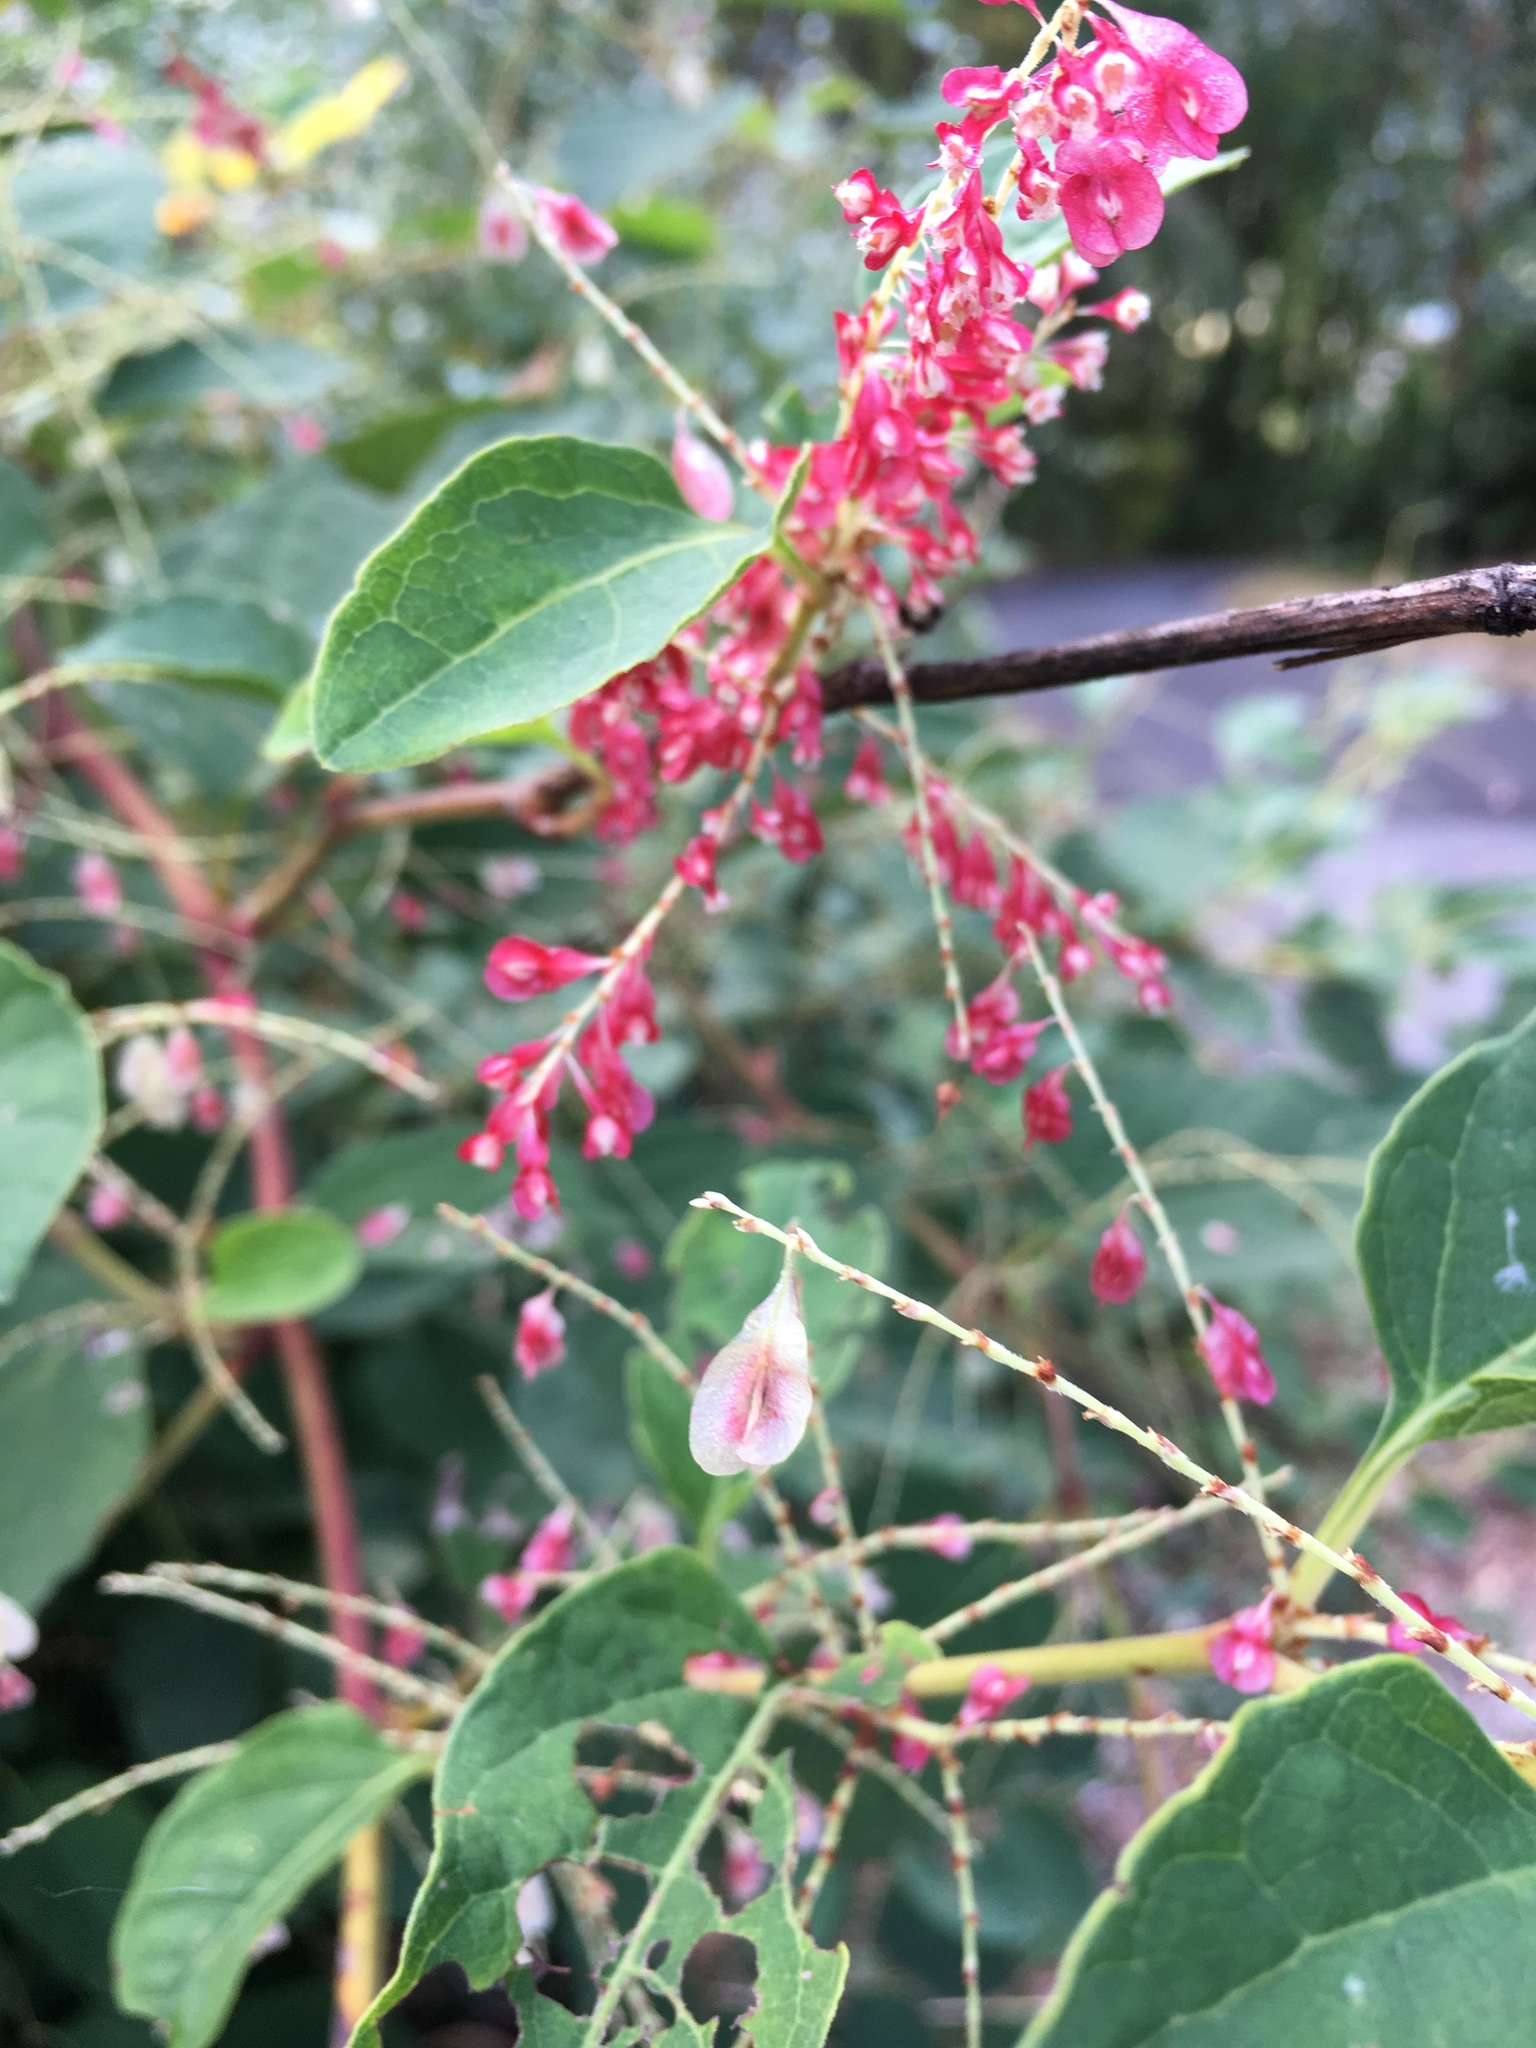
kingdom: Plantae
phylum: Tracheophyta
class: Magnoliopsida
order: Caryophyllales
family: Polygonaceae
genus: Reynoutria
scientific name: Reynoutria japonica
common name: Japanese knotweed
